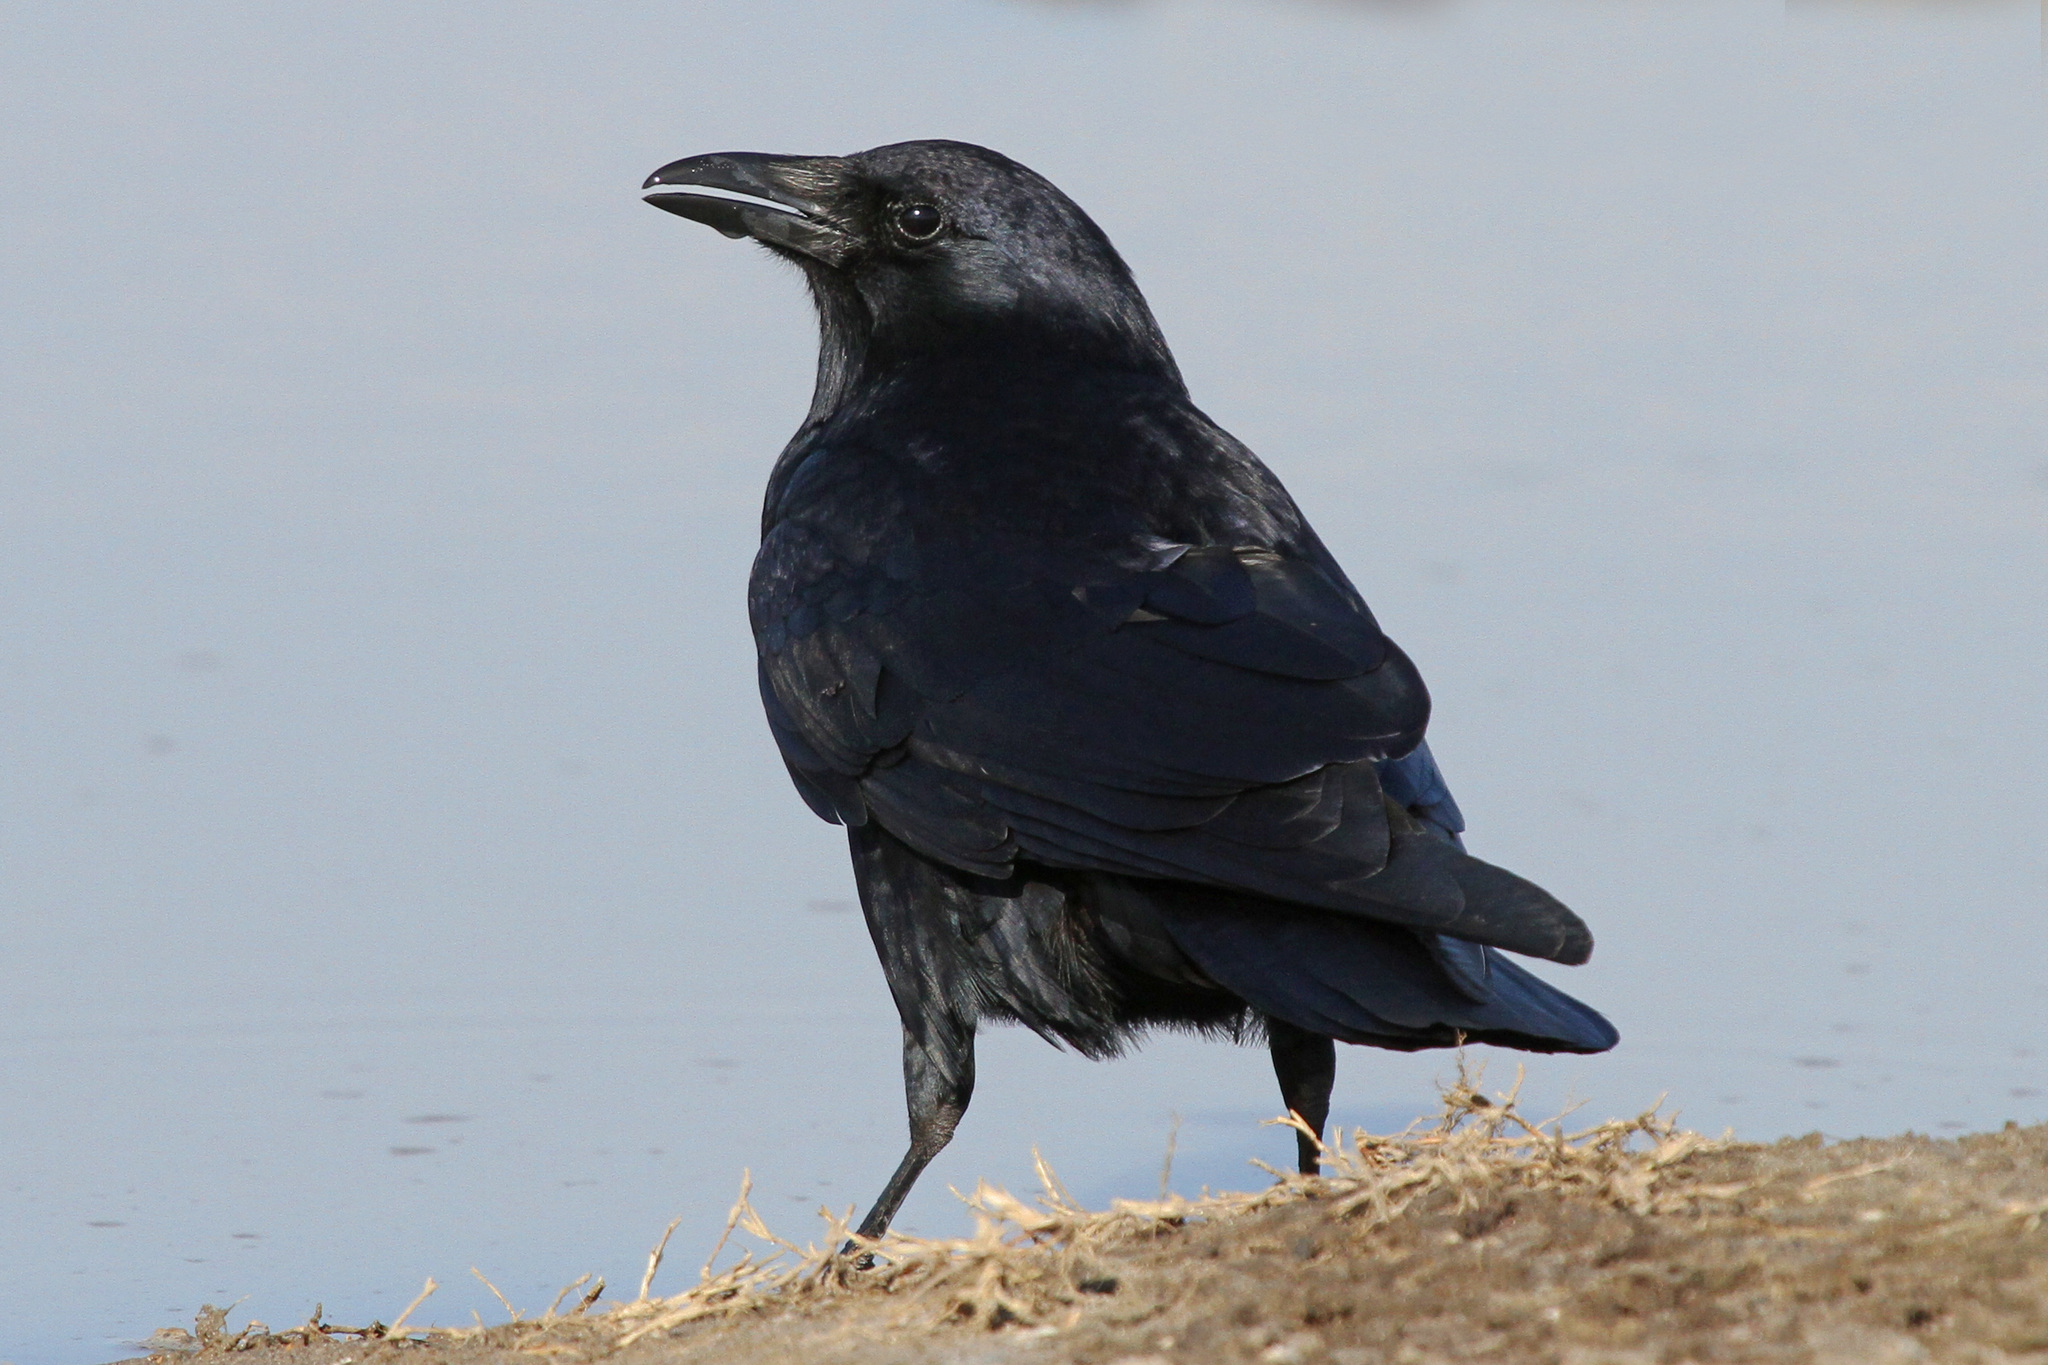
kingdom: Animalia
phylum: Chordata
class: Aves
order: Passeriformes
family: Corvidae
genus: Corvus
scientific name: Corvus brachyrhynchos
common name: American crow
